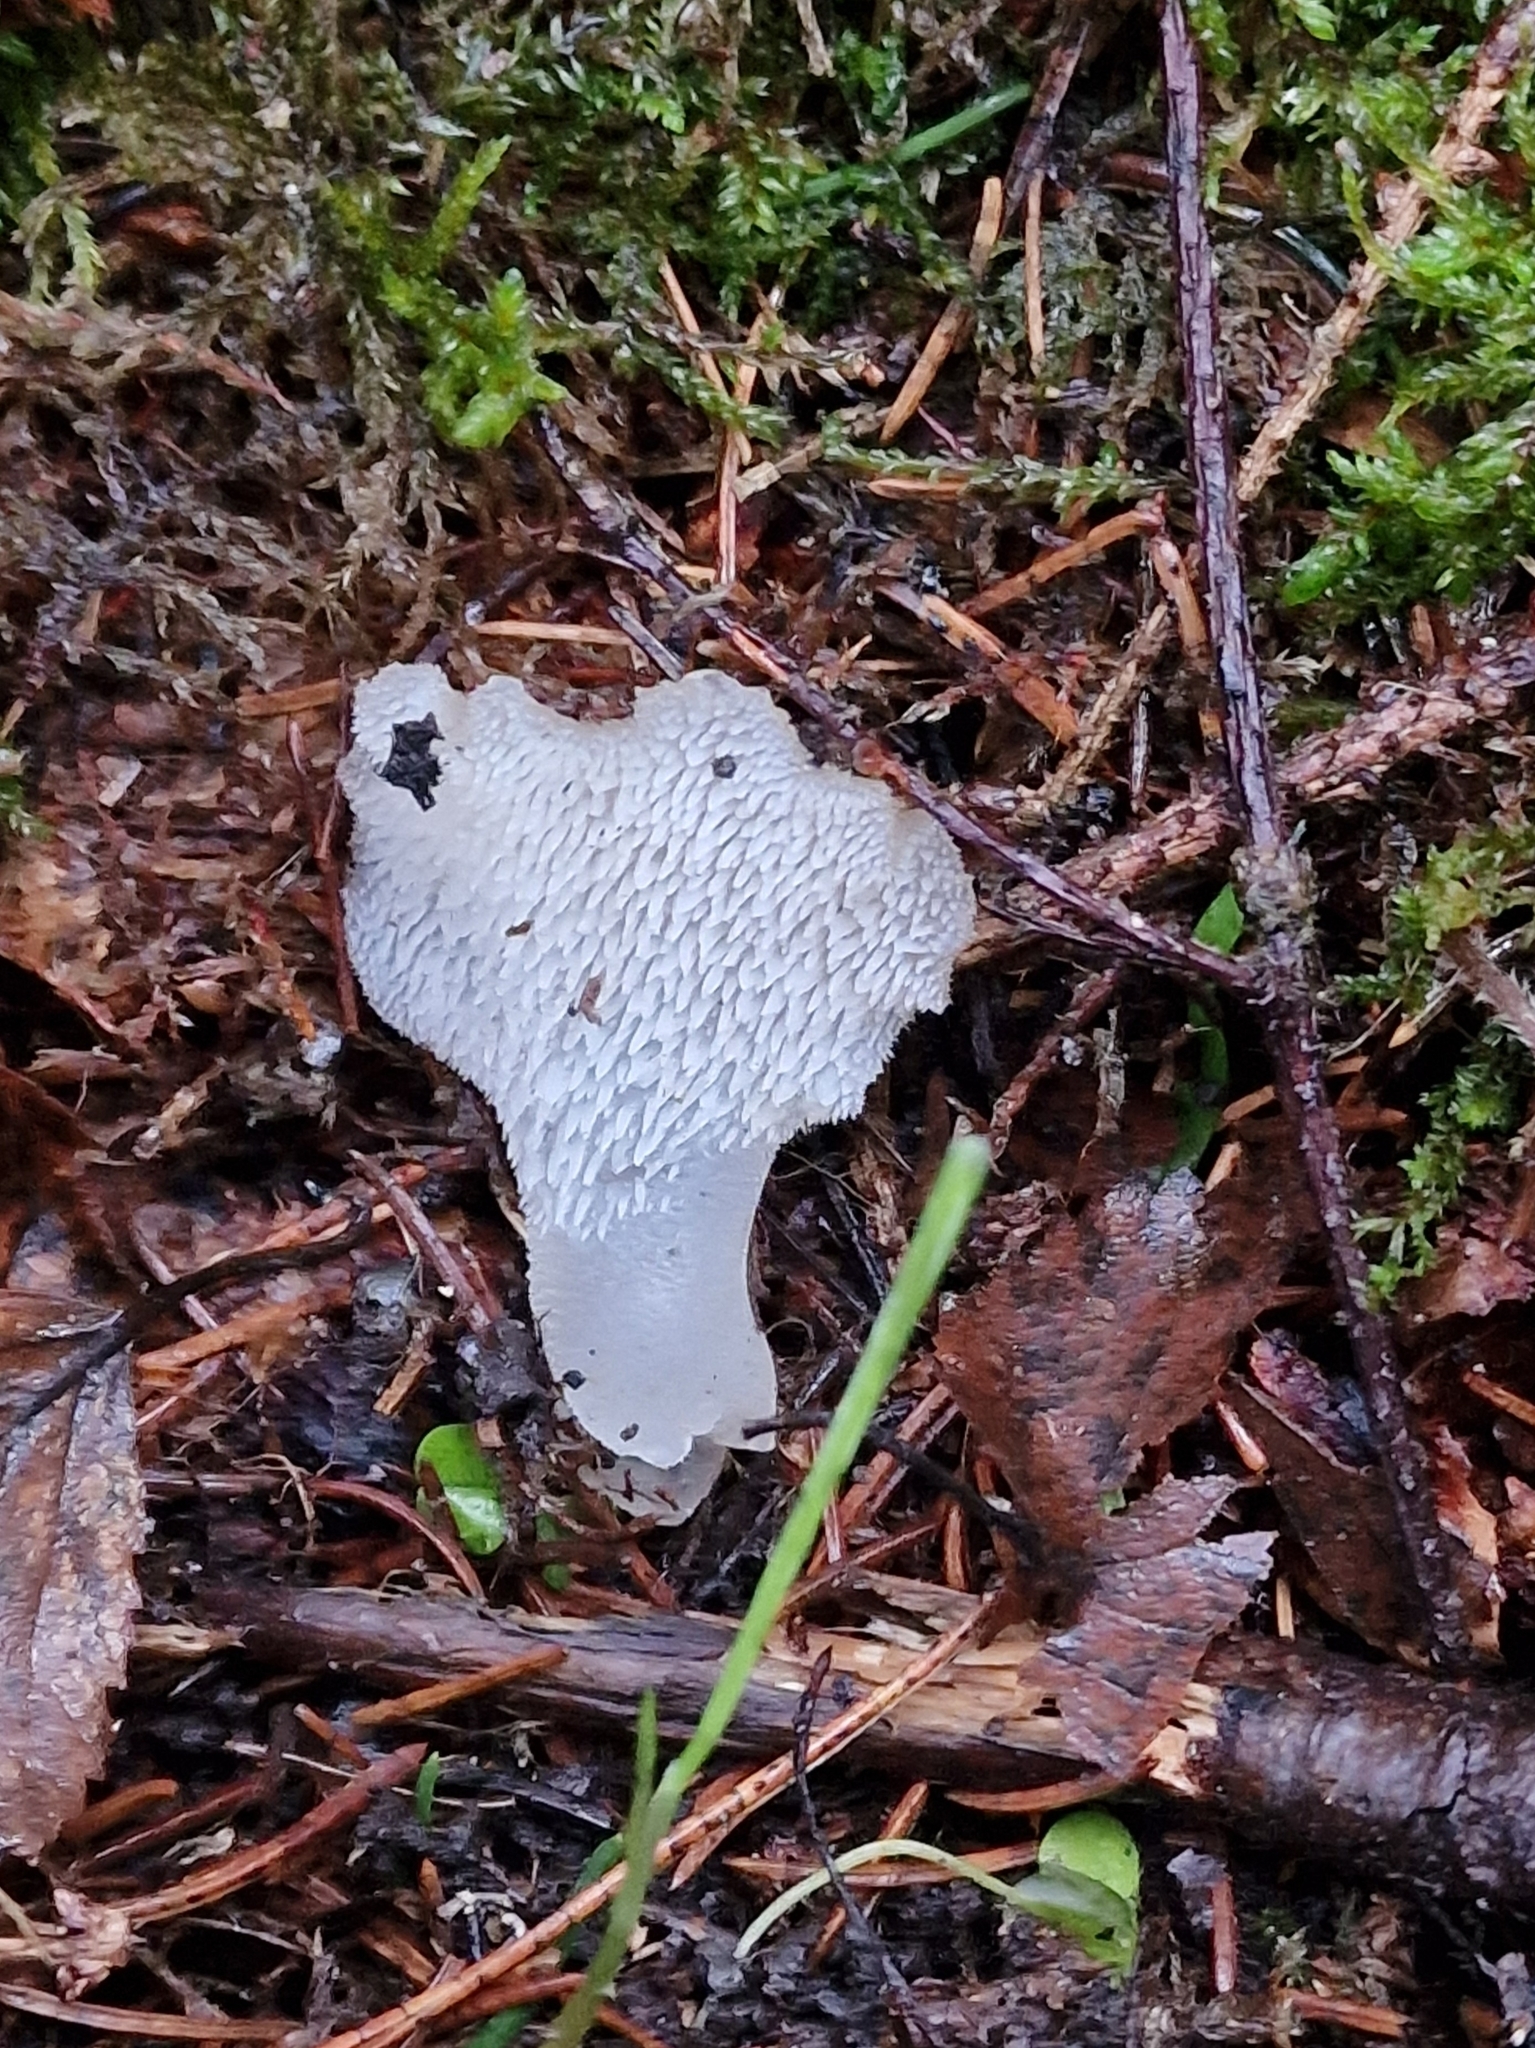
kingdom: Fungi
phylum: Basidiomycota
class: Agaricomycetes
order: Auriculariales
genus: Pseudohydnum
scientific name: Pseudohydnum gelatinosum
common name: Jelly tongue
